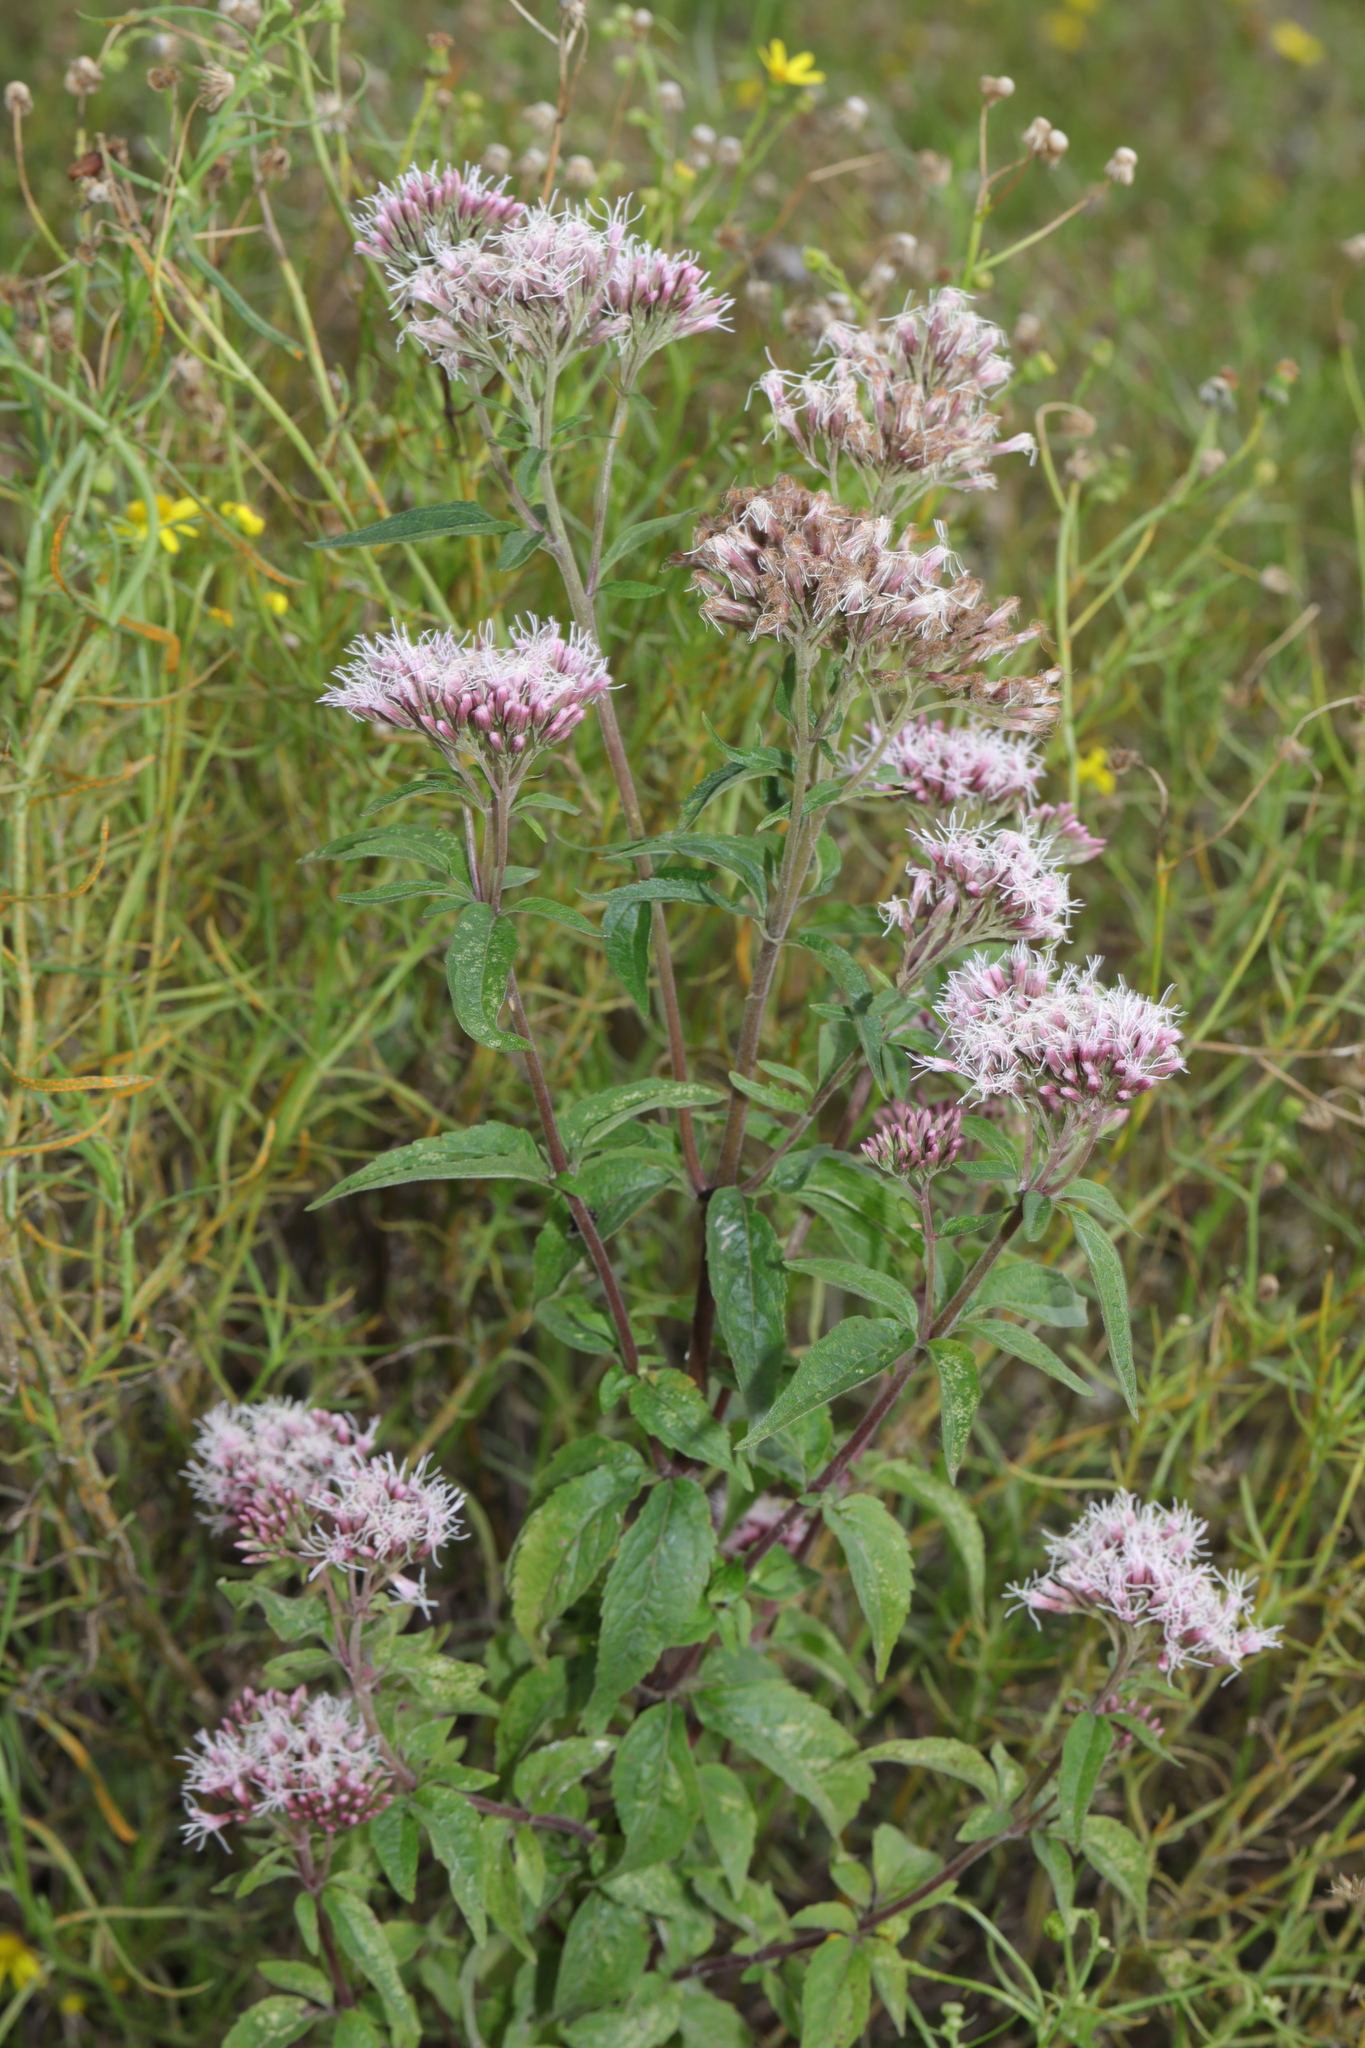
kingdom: Plantae
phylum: Tracheophyta
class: Magnoliopsida
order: Asterales
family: Asteraceae
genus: Eupatorium
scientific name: Eupatorium cannabinum
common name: Hemp-agrimony
